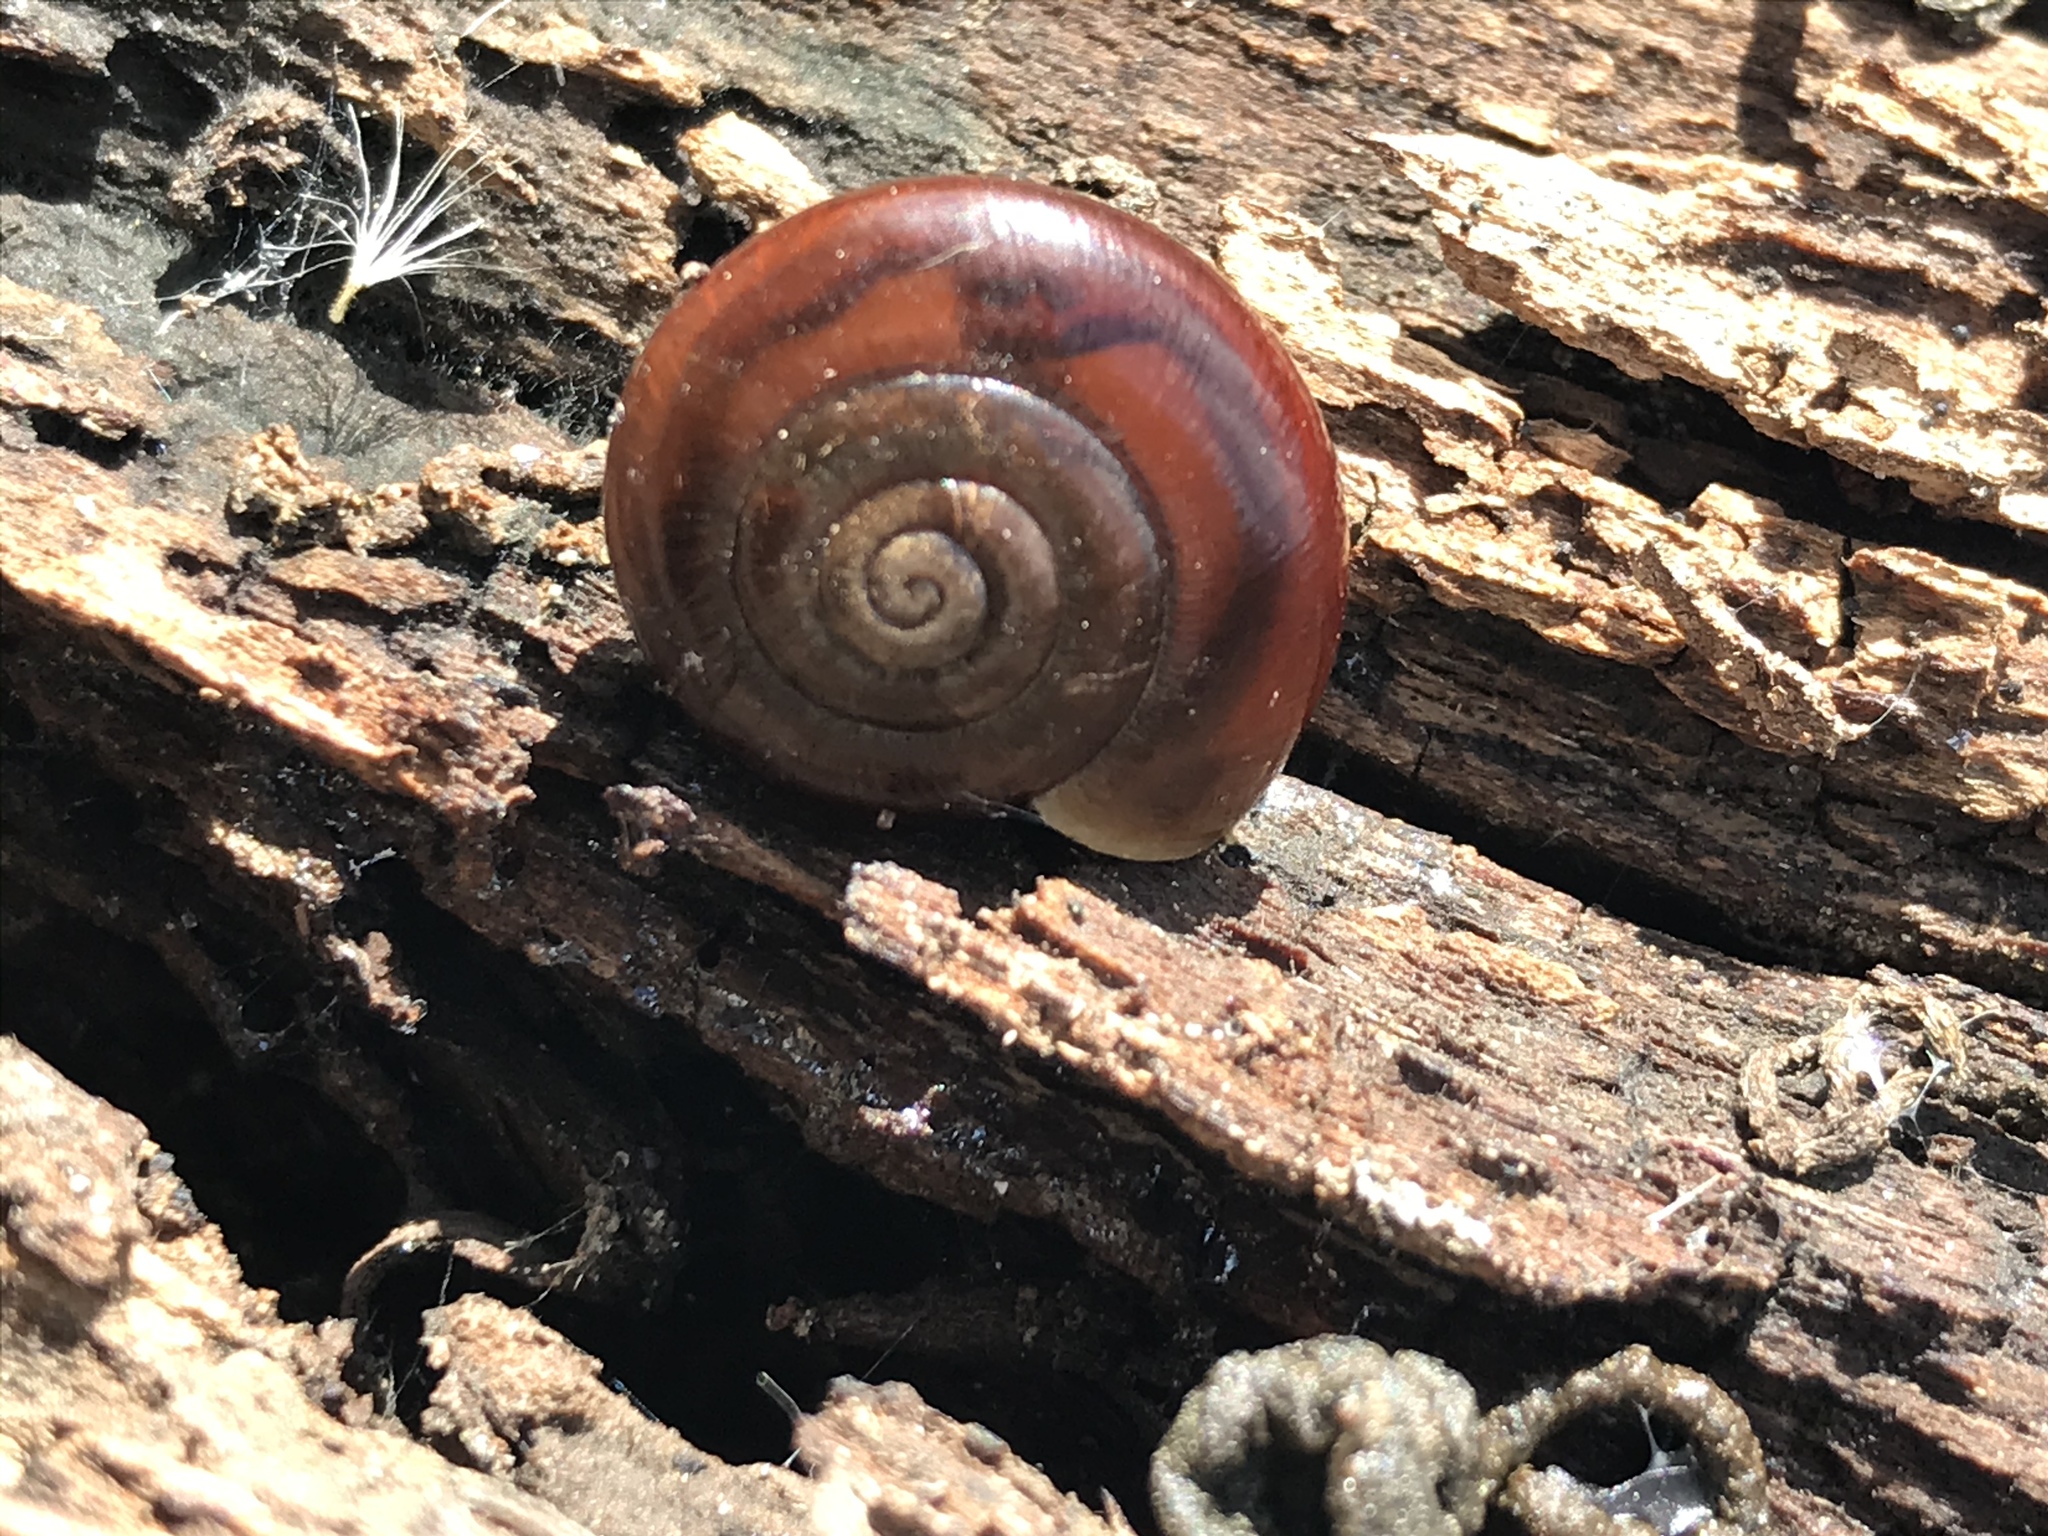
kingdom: Animalia
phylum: Mollusca
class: Gastropoda
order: Stylommatophora
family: Megomphicidae
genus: Glyptostoma
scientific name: Glyptostoma gabrielense
